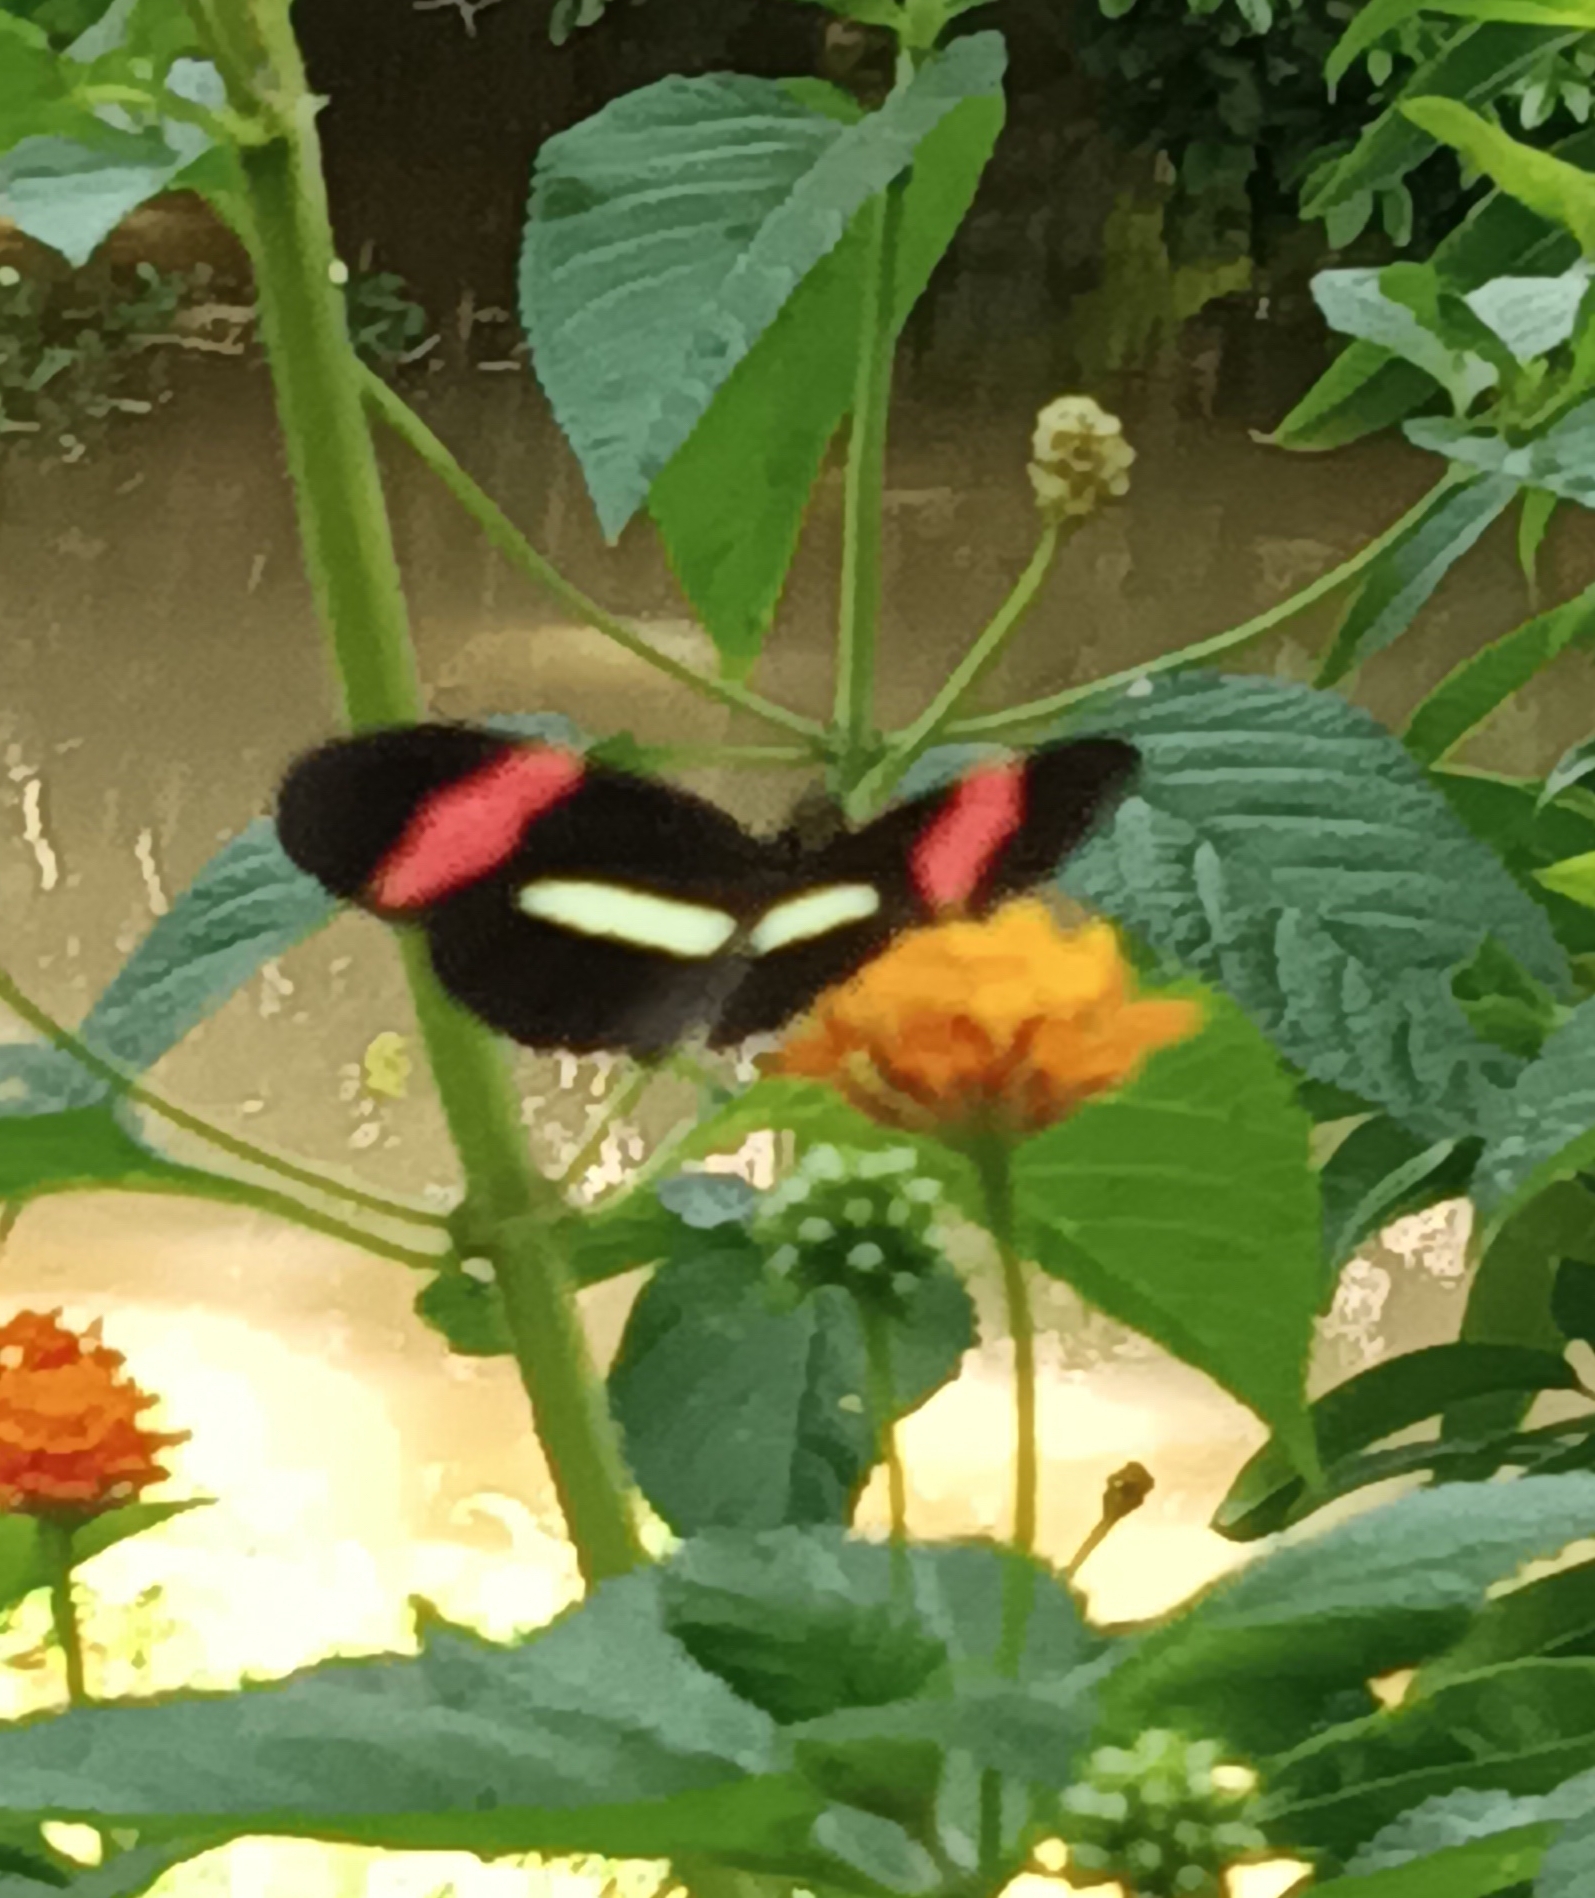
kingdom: Animalia
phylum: Arthropoda
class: Insecta
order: Lepidoptera
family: Nymphalidae
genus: Tirumala
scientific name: Tirumala petiverana
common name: Blue monarch
